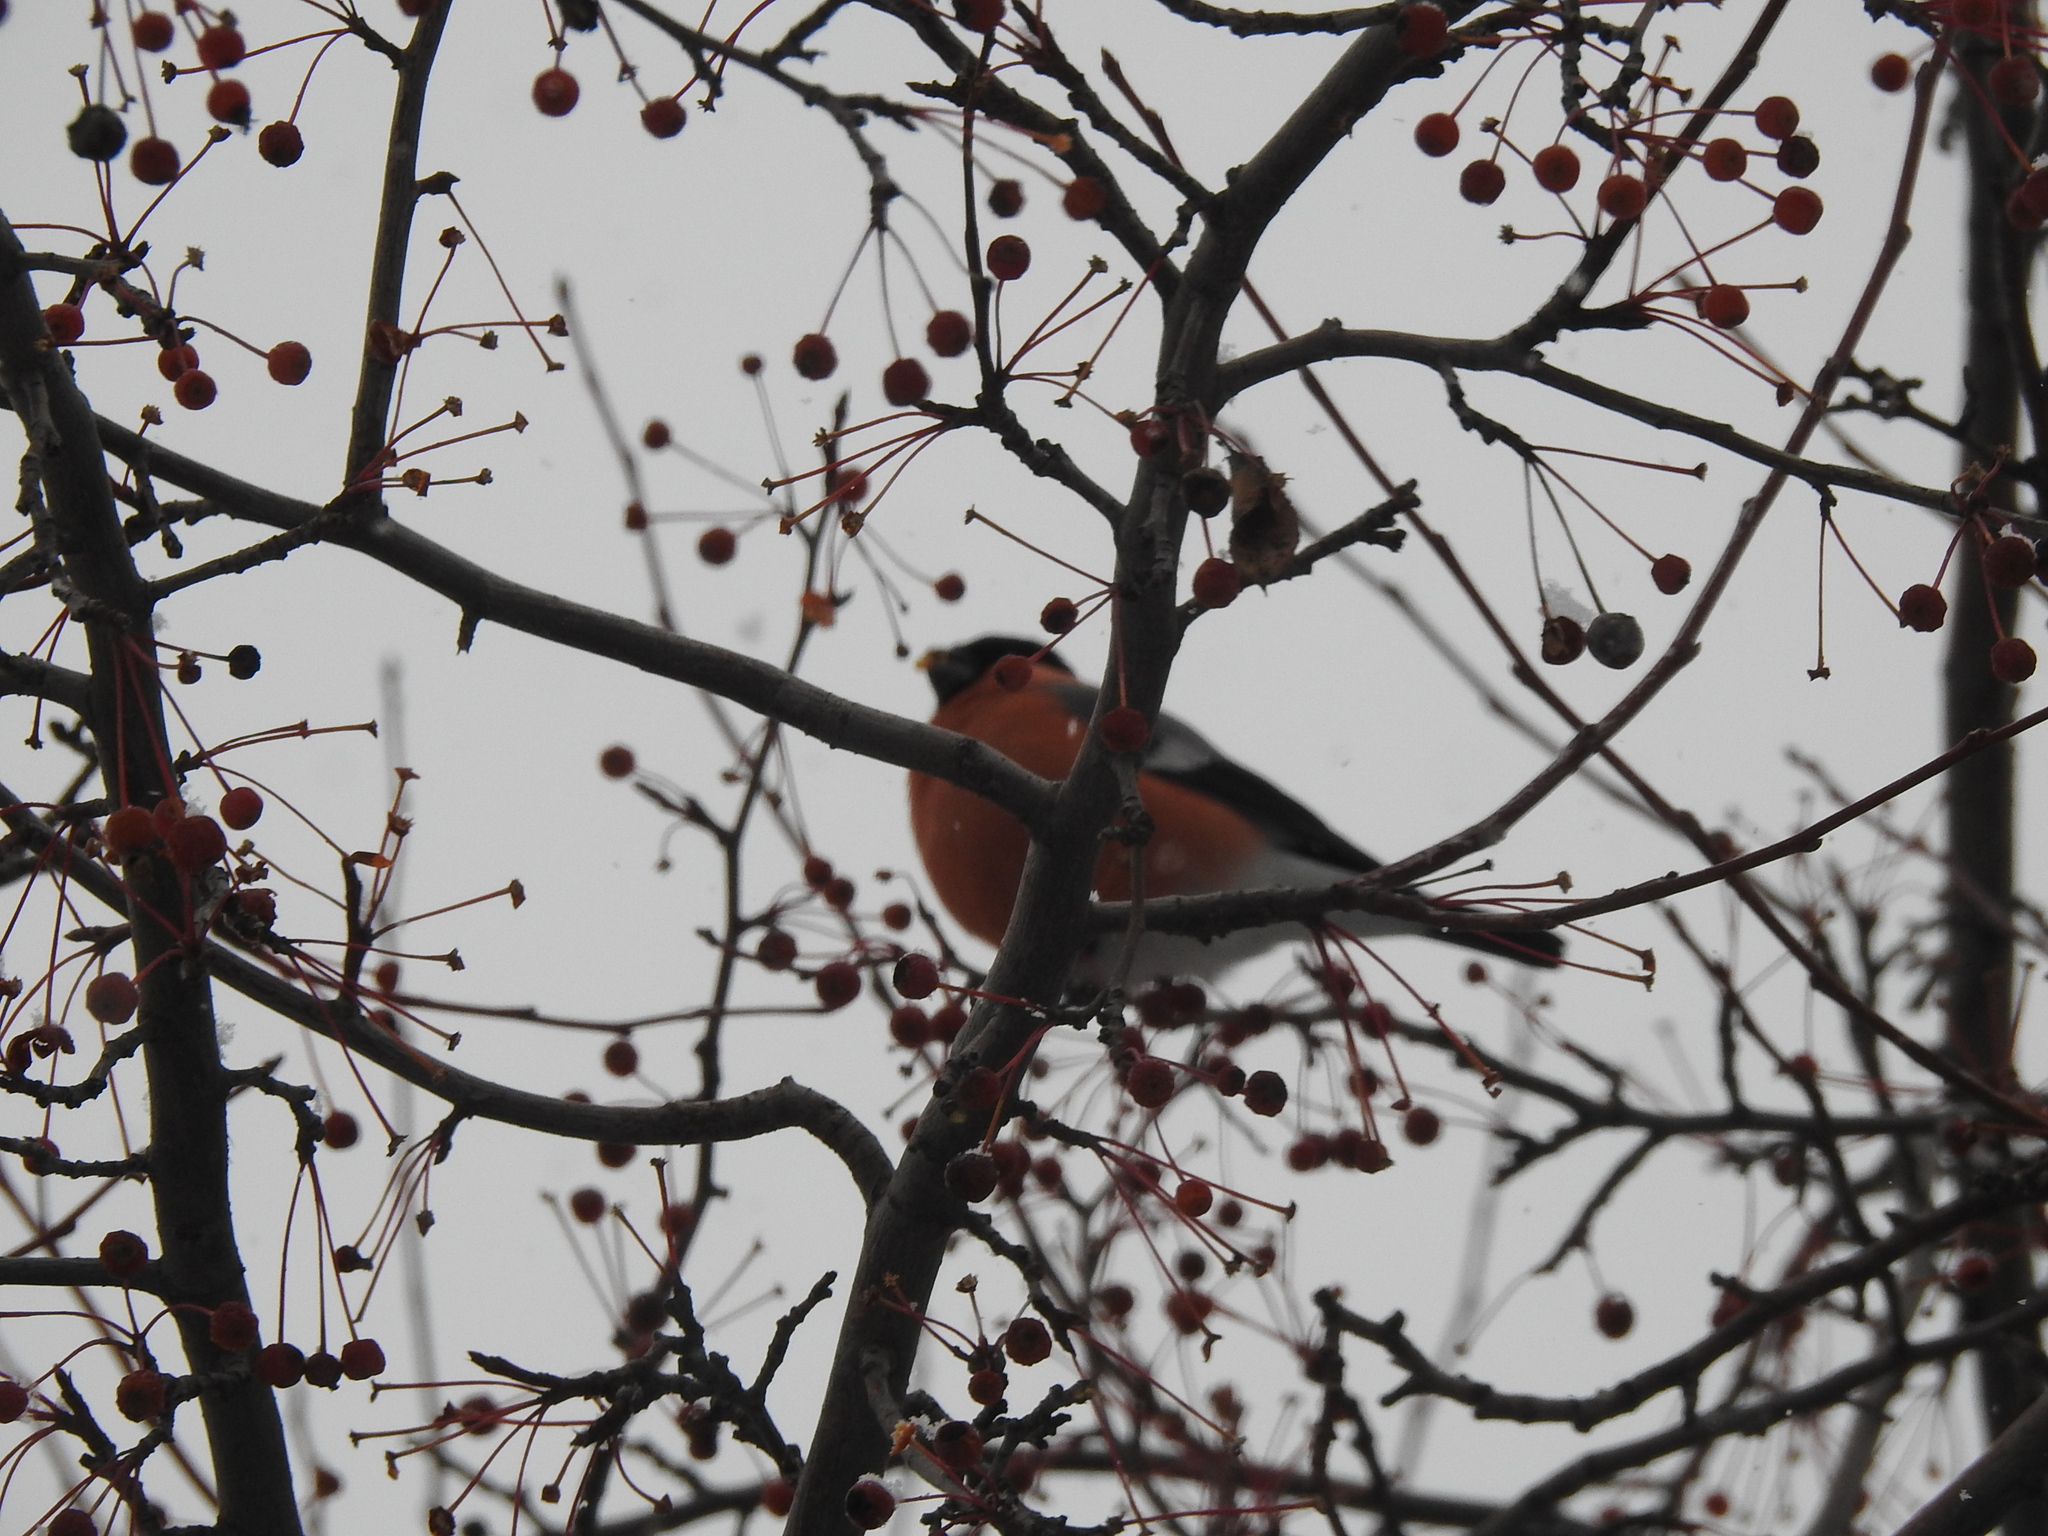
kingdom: Animalia
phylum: Chordata
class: Aves
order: Passeriformes
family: Fringillidae
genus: Pyrrhula
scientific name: Pyrrhula pyrrhula
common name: Eurasian bullfinch
